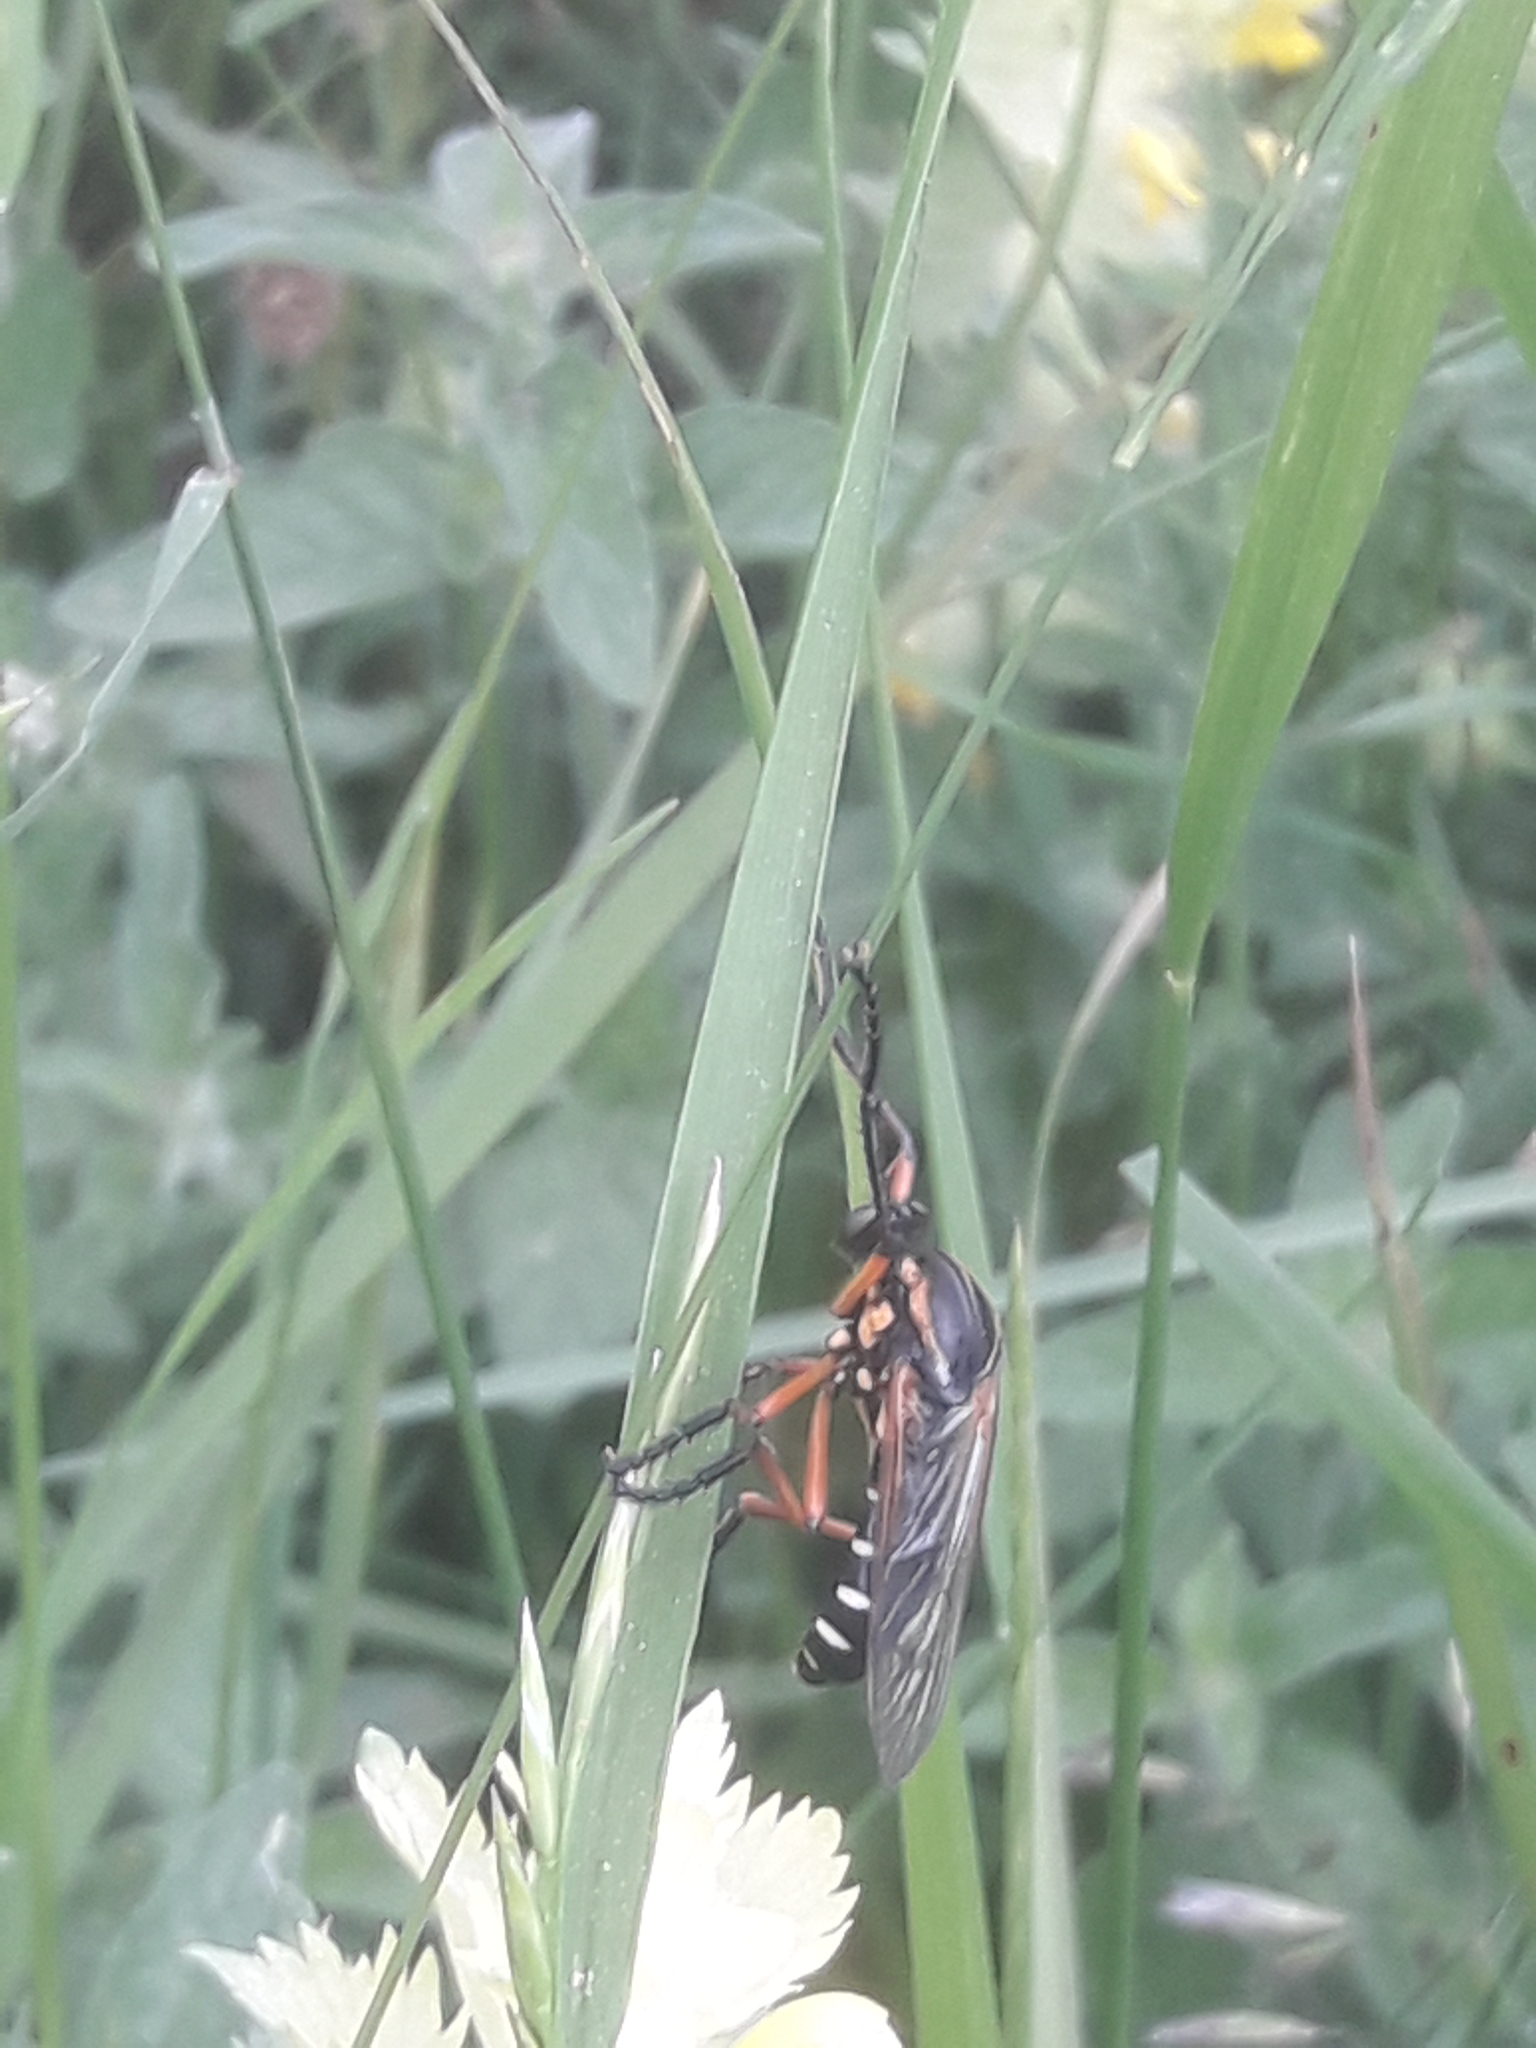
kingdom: Animalia
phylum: Arthropoda
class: Insecta
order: Diptera
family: Asilidae
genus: Molobratia
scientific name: Molobratia teutona
